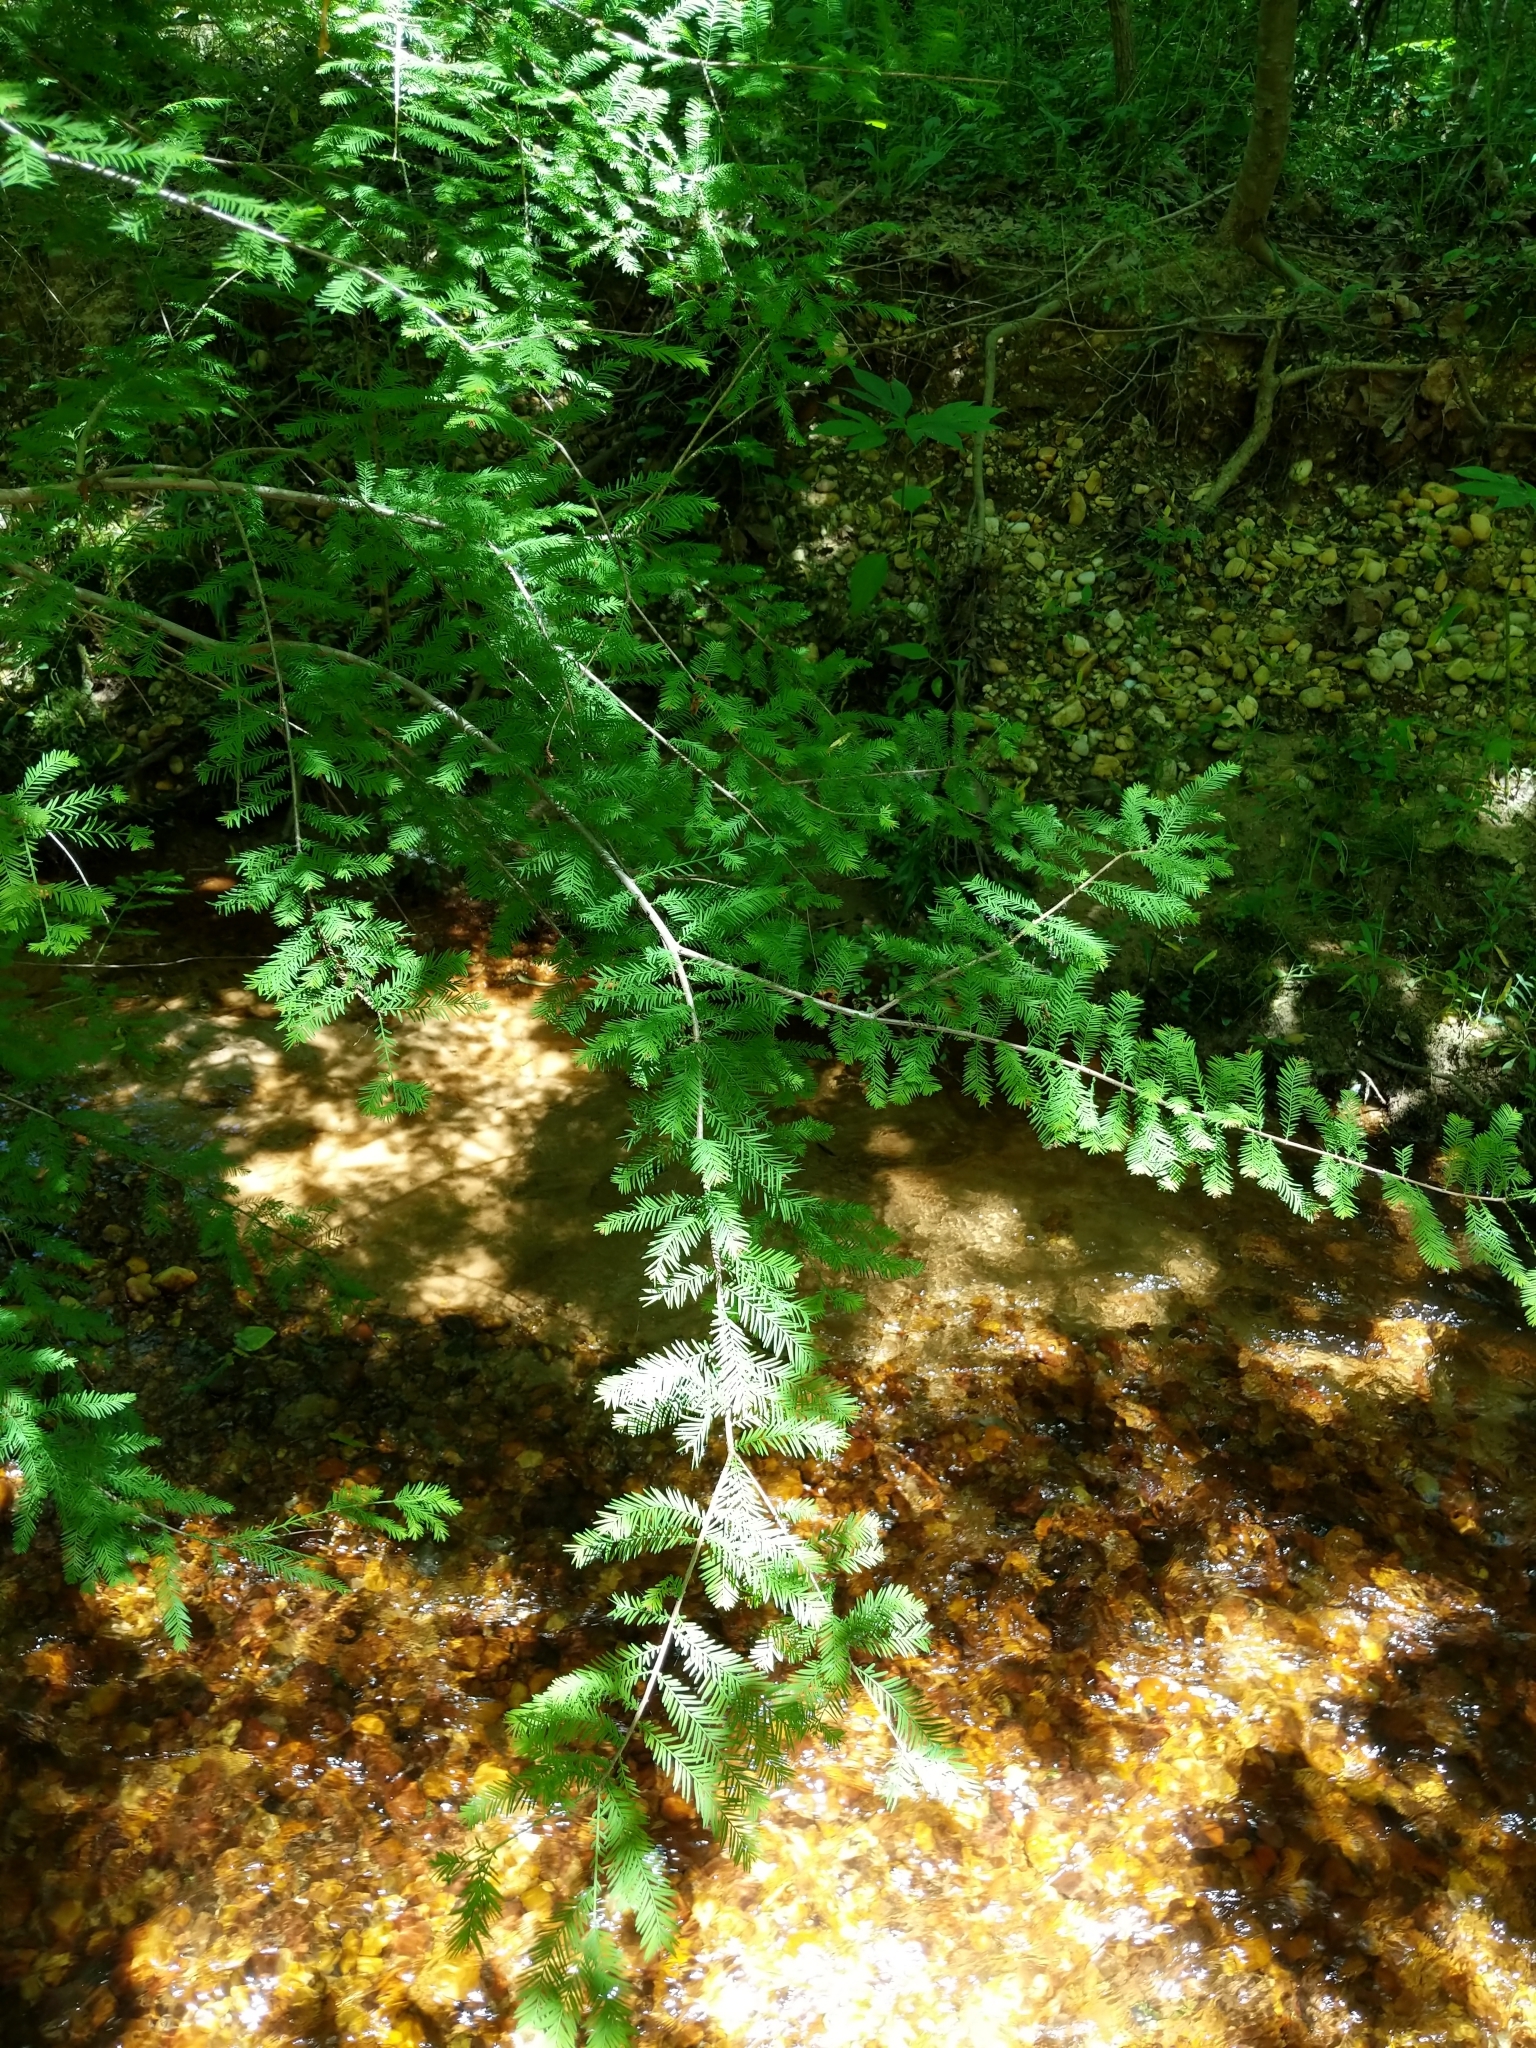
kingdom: Plantae
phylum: Tracheophyta
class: Pinopsida
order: Pinales
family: Cupressaceae
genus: Taxodium
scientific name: Taxodium distichum
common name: Bald cypress
